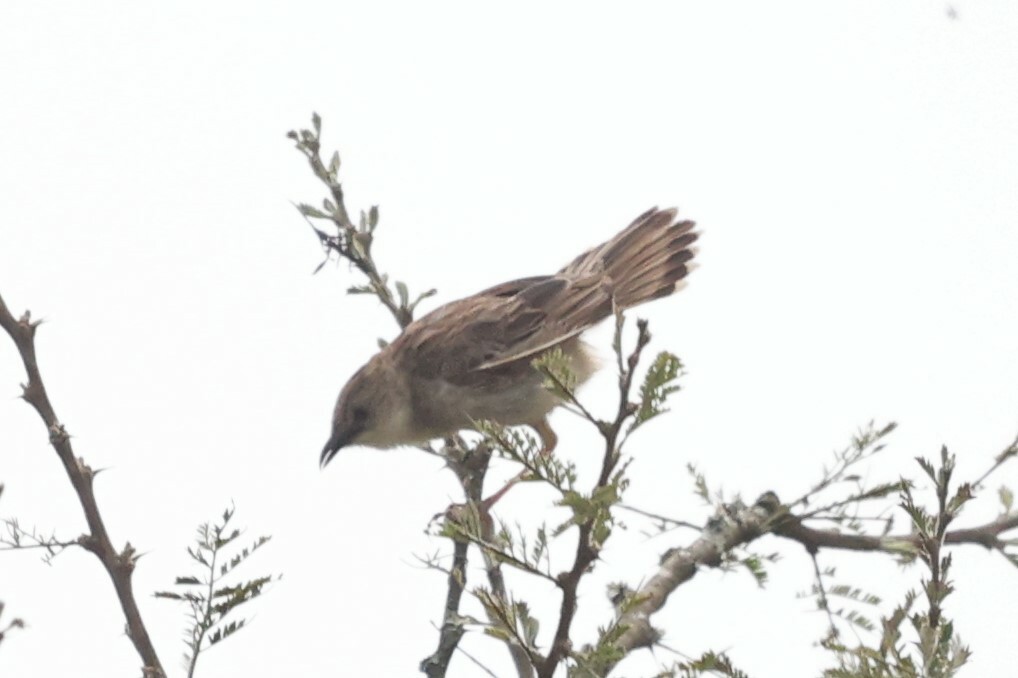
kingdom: Animalia
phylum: Chordata
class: Aves
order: Passeriformes
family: Cisticolidae
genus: Cisticola
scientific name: Cisticola natalensis
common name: Croaking cisticola
